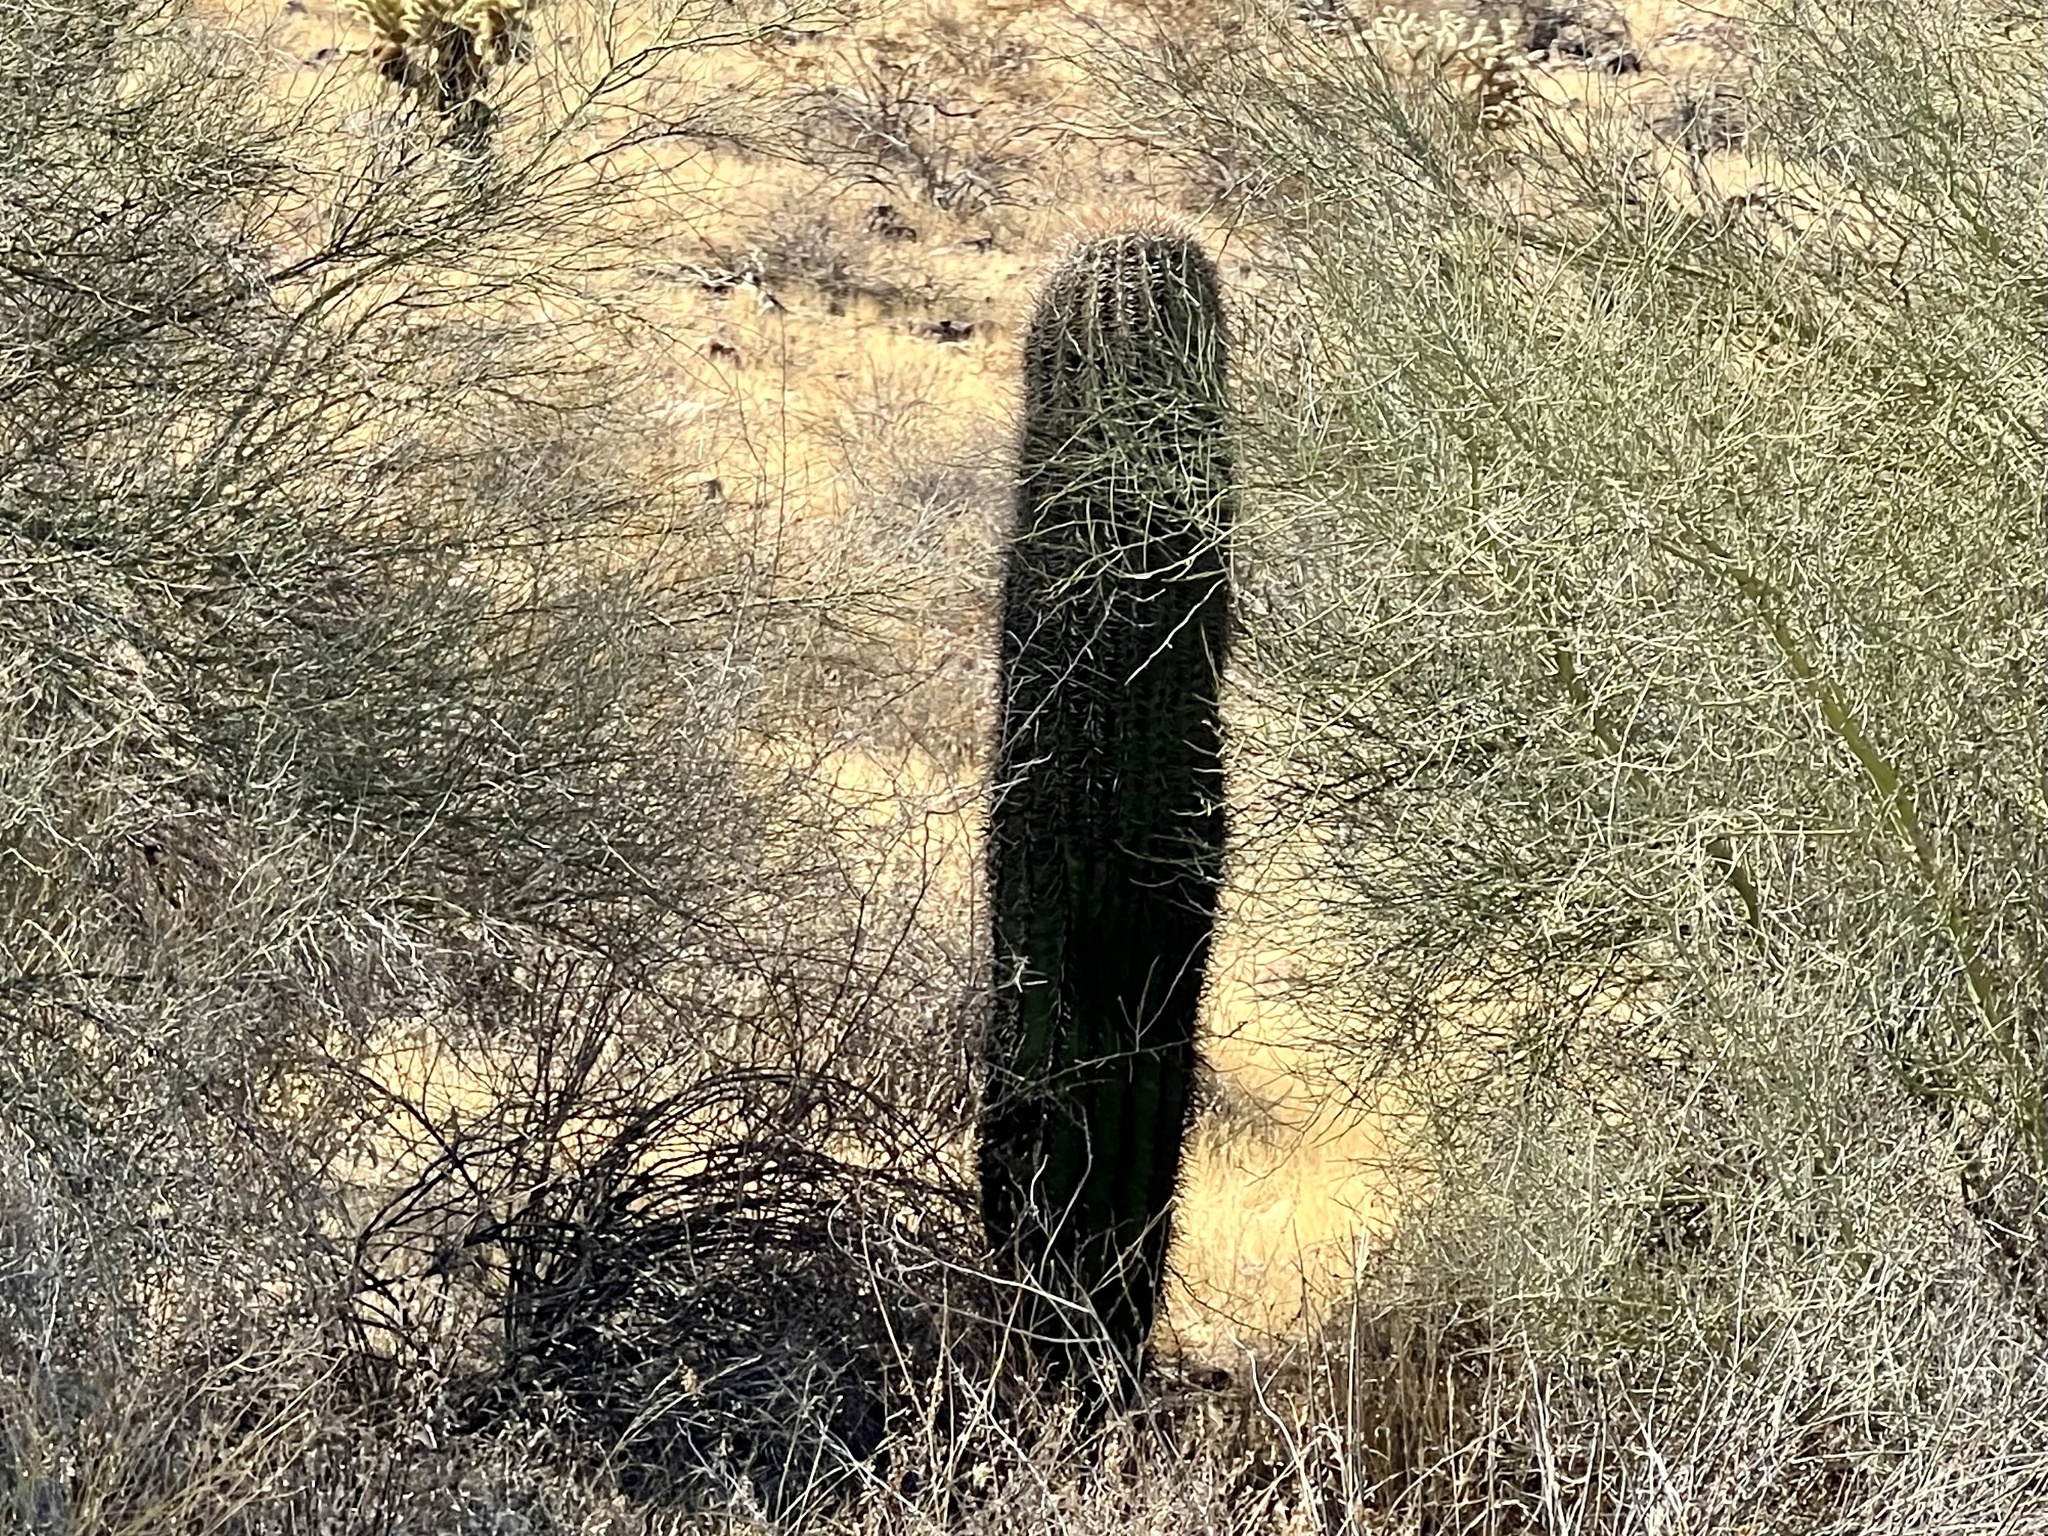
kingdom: Plantae
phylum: Tracheophyta
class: Magnoliopsida
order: Caryophyllales
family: Cactaceae
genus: Carnegiea
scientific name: Carnegiea gigantea
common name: Saguaro
